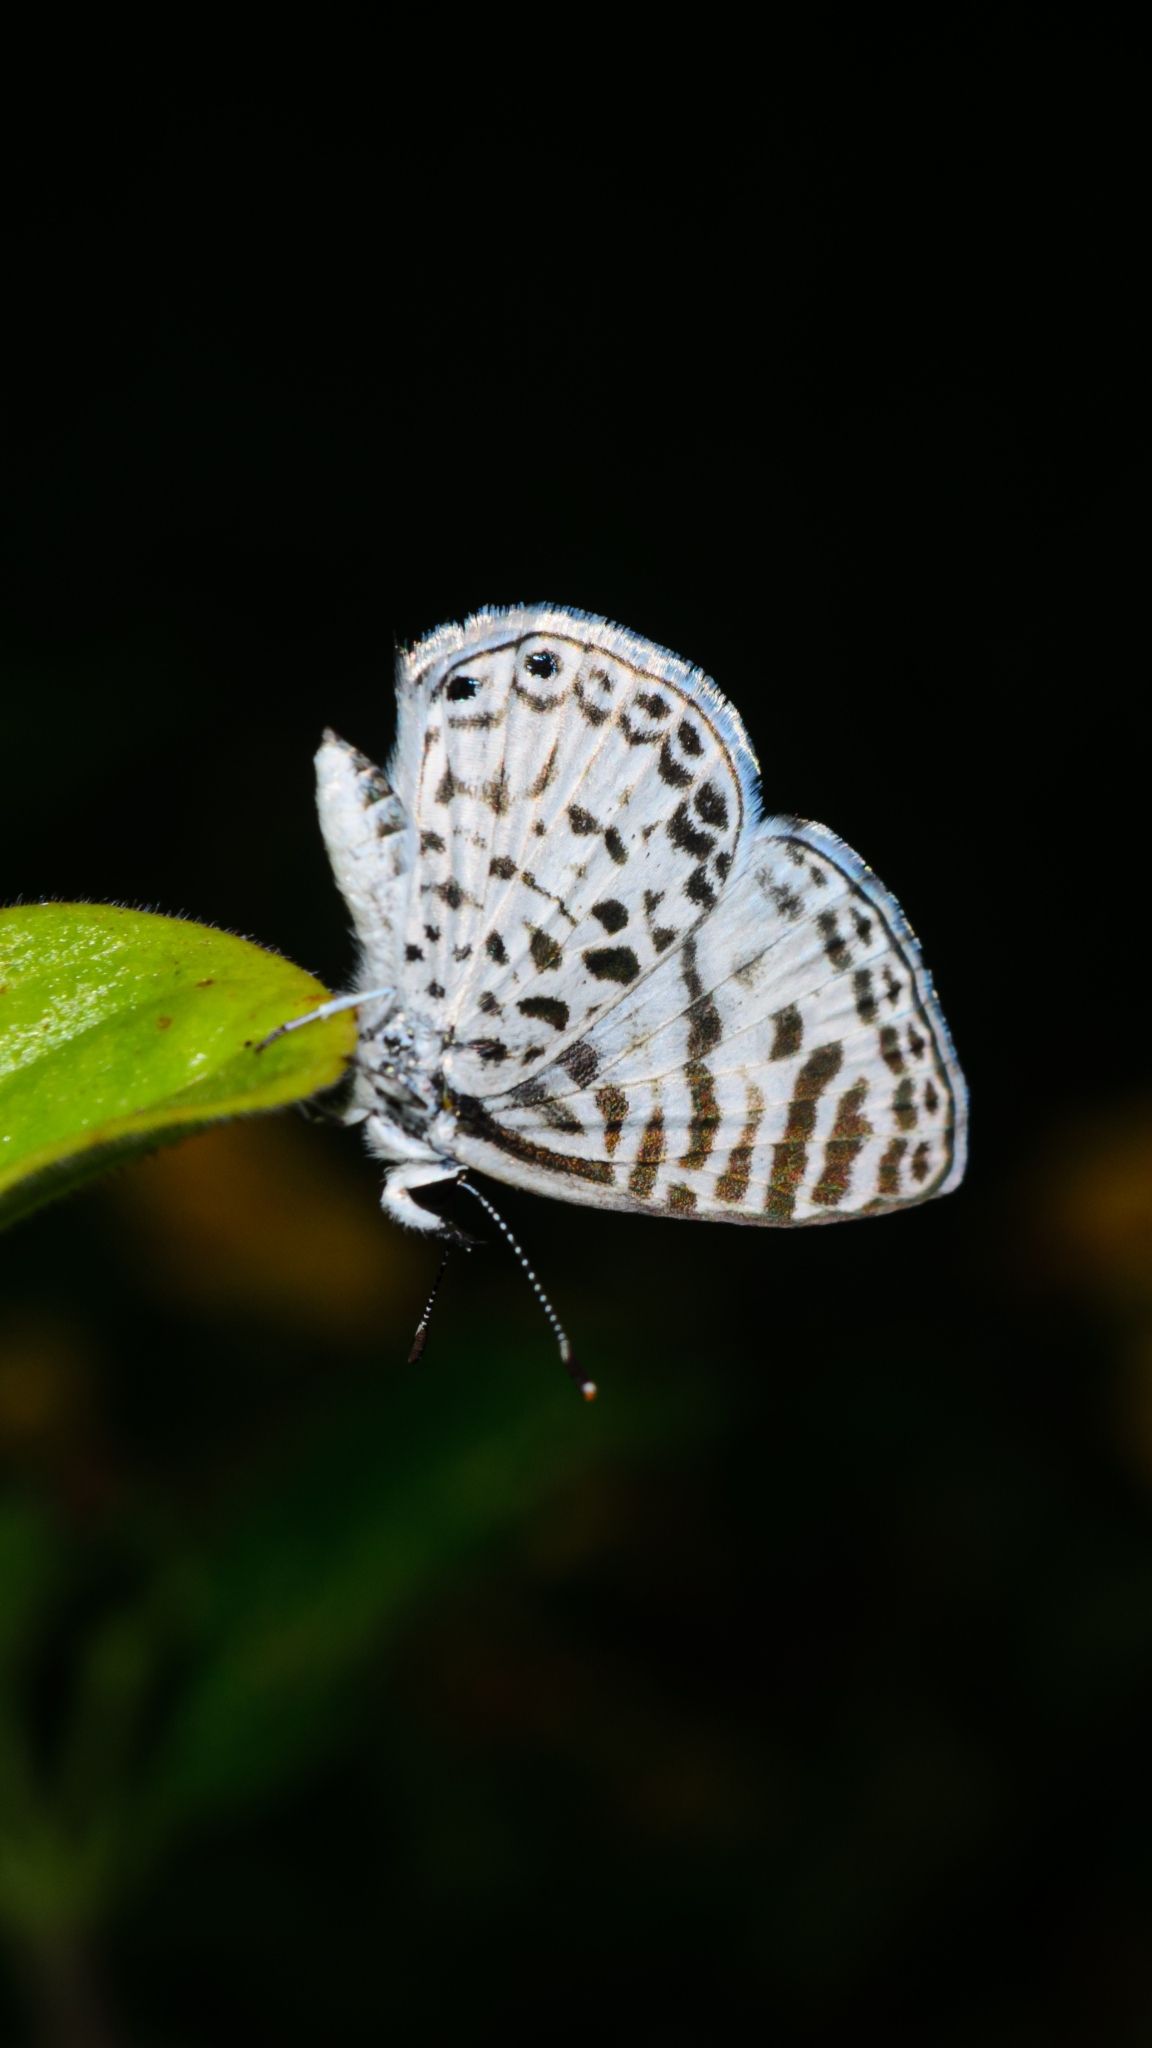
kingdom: Animalia
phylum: Arthropoda
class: Insecta
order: Lepidoptera
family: Lycaenidae
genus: Leptotes
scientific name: Leptotes cassius
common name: Cassius blue
